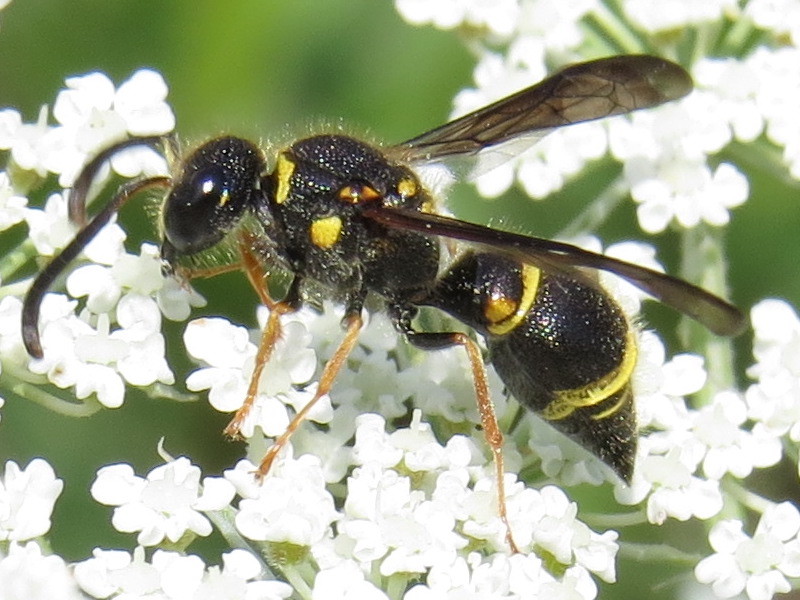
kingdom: Animalia
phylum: Arthropoda
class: Insecta
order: Hymenoptera
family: Vespidae
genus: Ancistrocerus
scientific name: Ancistrocerus campestris
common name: Smiling mason wasp
